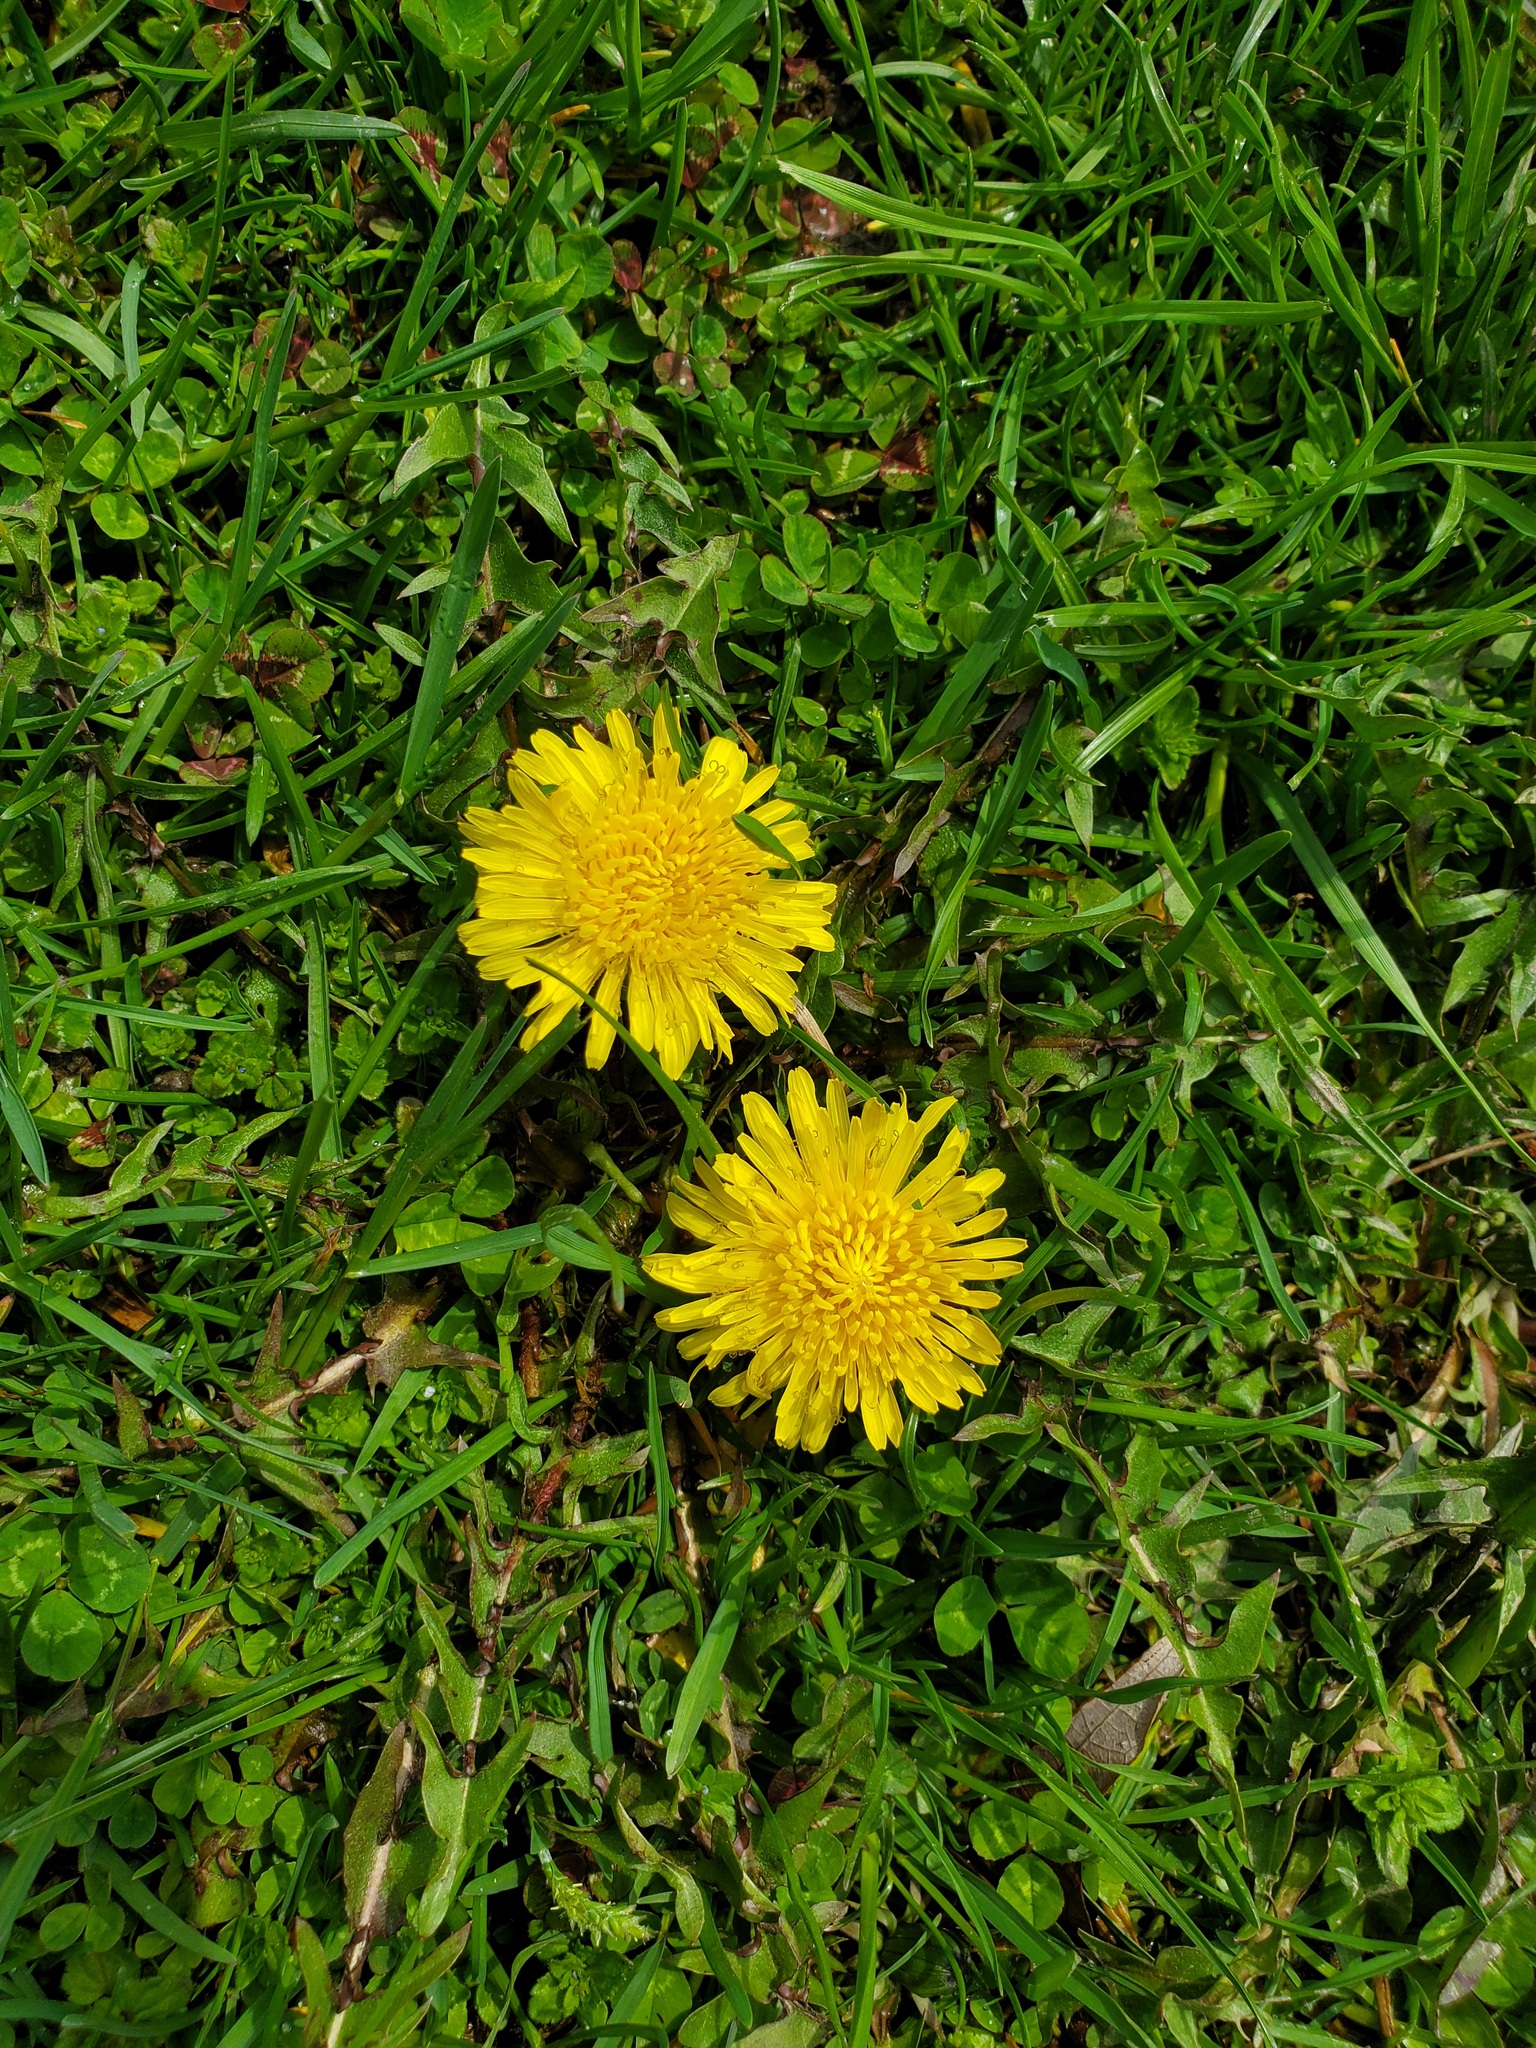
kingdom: Plantae
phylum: Tracheophyta
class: Magnoliopsida
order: Asterales
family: Asteraceae
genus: Taraxacum
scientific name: Taraxacum officinale
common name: Common dandelion
